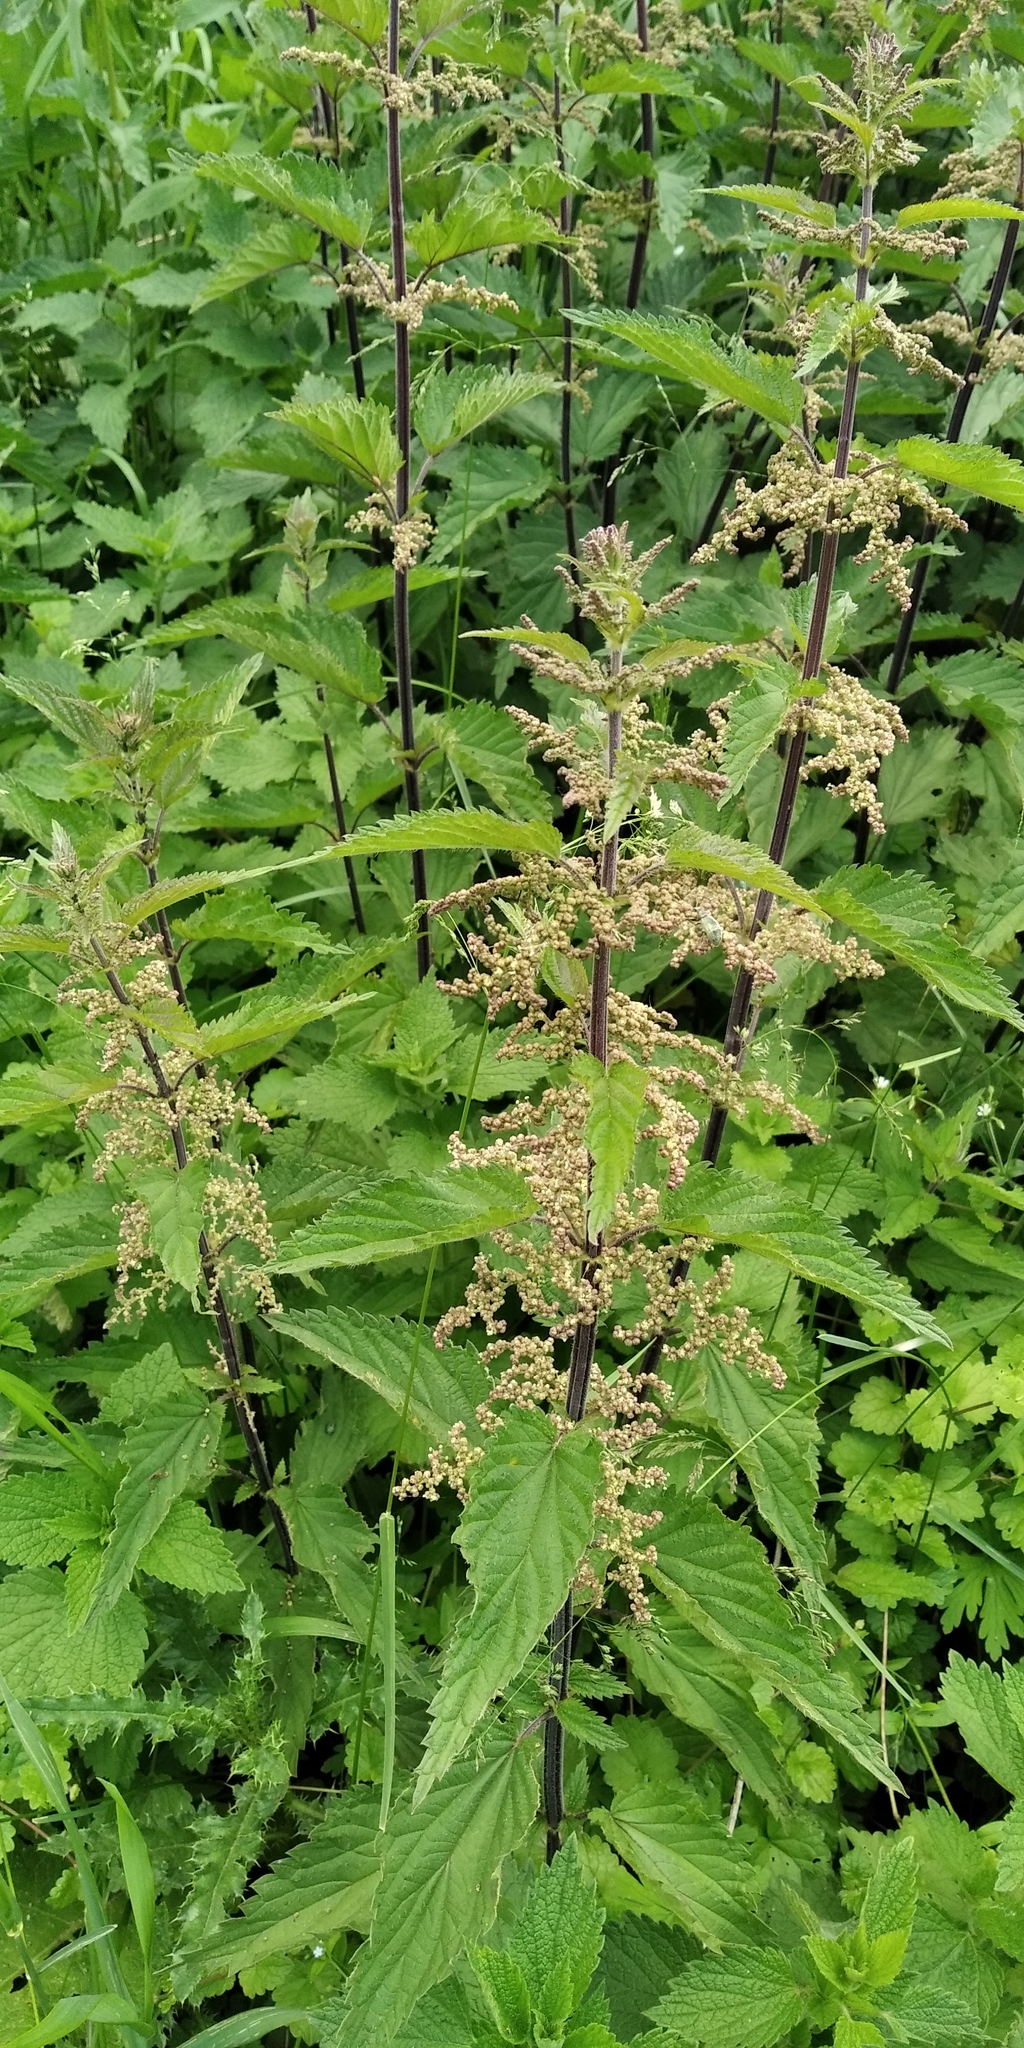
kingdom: Plantae
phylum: Tracheophyta
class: Magnoliopsida
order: Rosales
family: Urticaceae
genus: Urtica
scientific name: Urtica galeopsifolia
